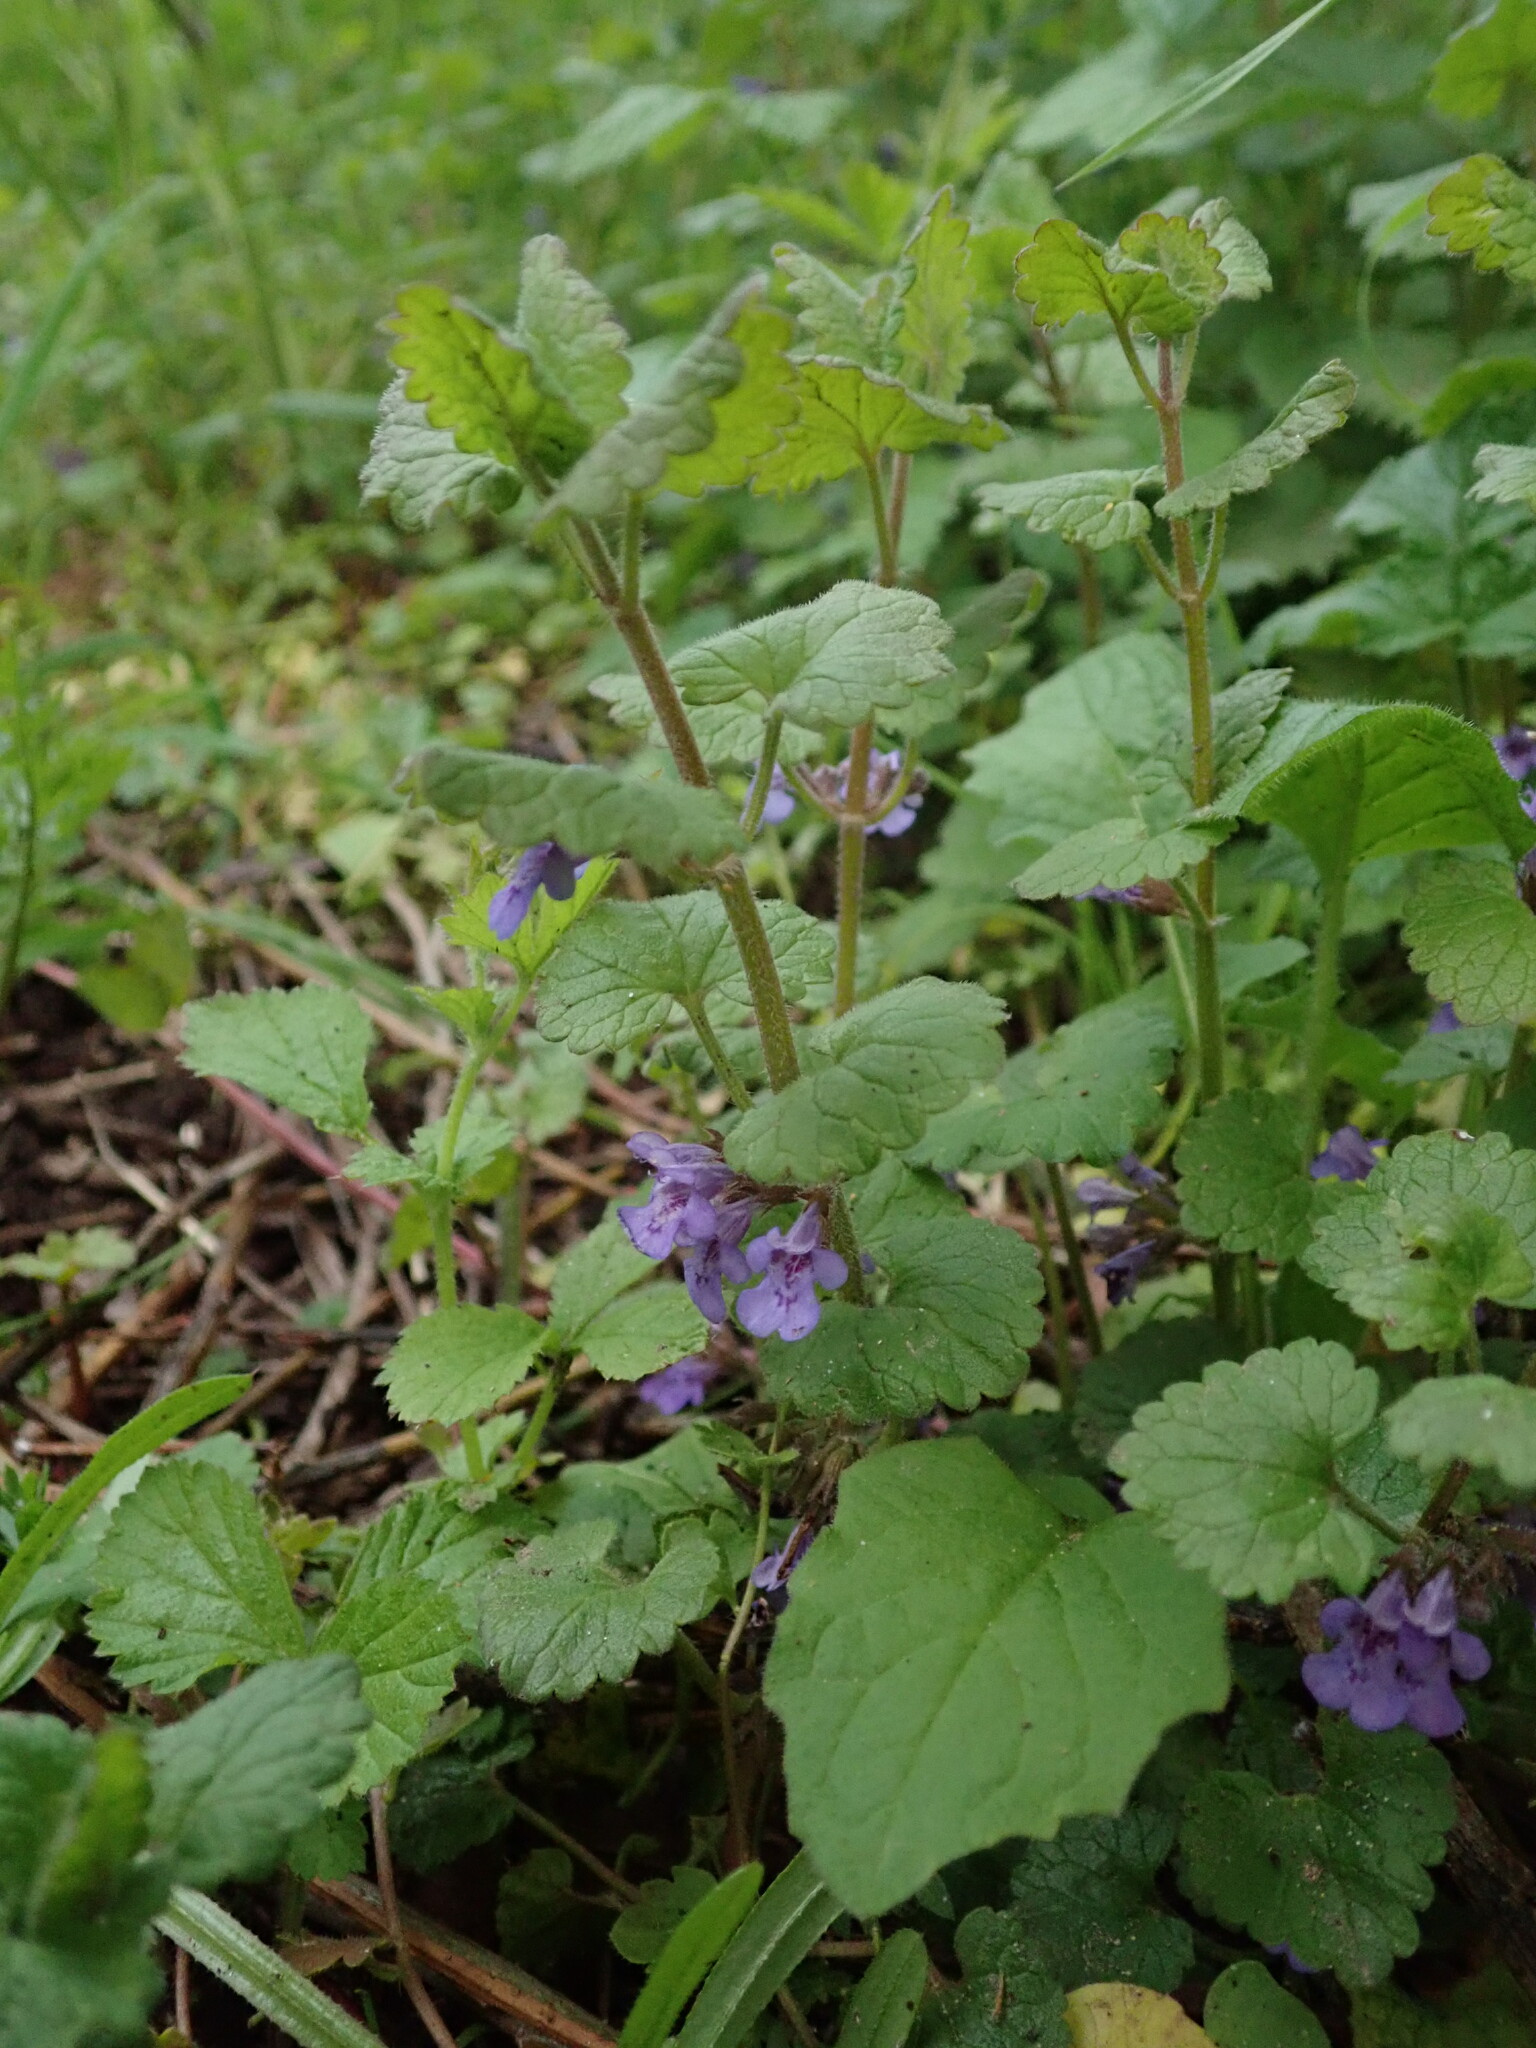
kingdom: Plantae
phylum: Tracheophyta
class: Magnoliopsida
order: Lamiales
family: Lamiaceae
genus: Glechoma
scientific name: Glechoma hederacea
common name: Ground ivy
